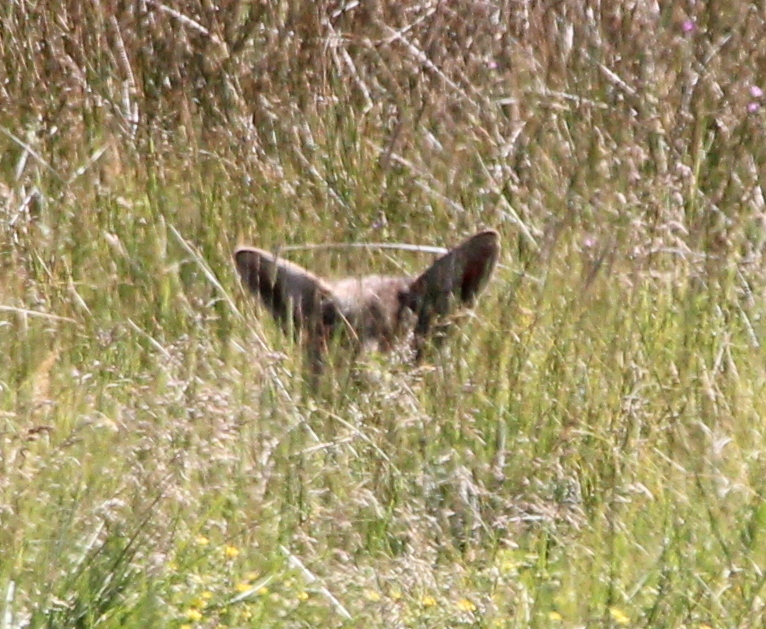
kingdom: Animalia
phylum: Chordata
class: Mammalia
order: Carnivora
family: Canidae
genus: Canis
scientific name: Canis latrans
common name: Coyote
